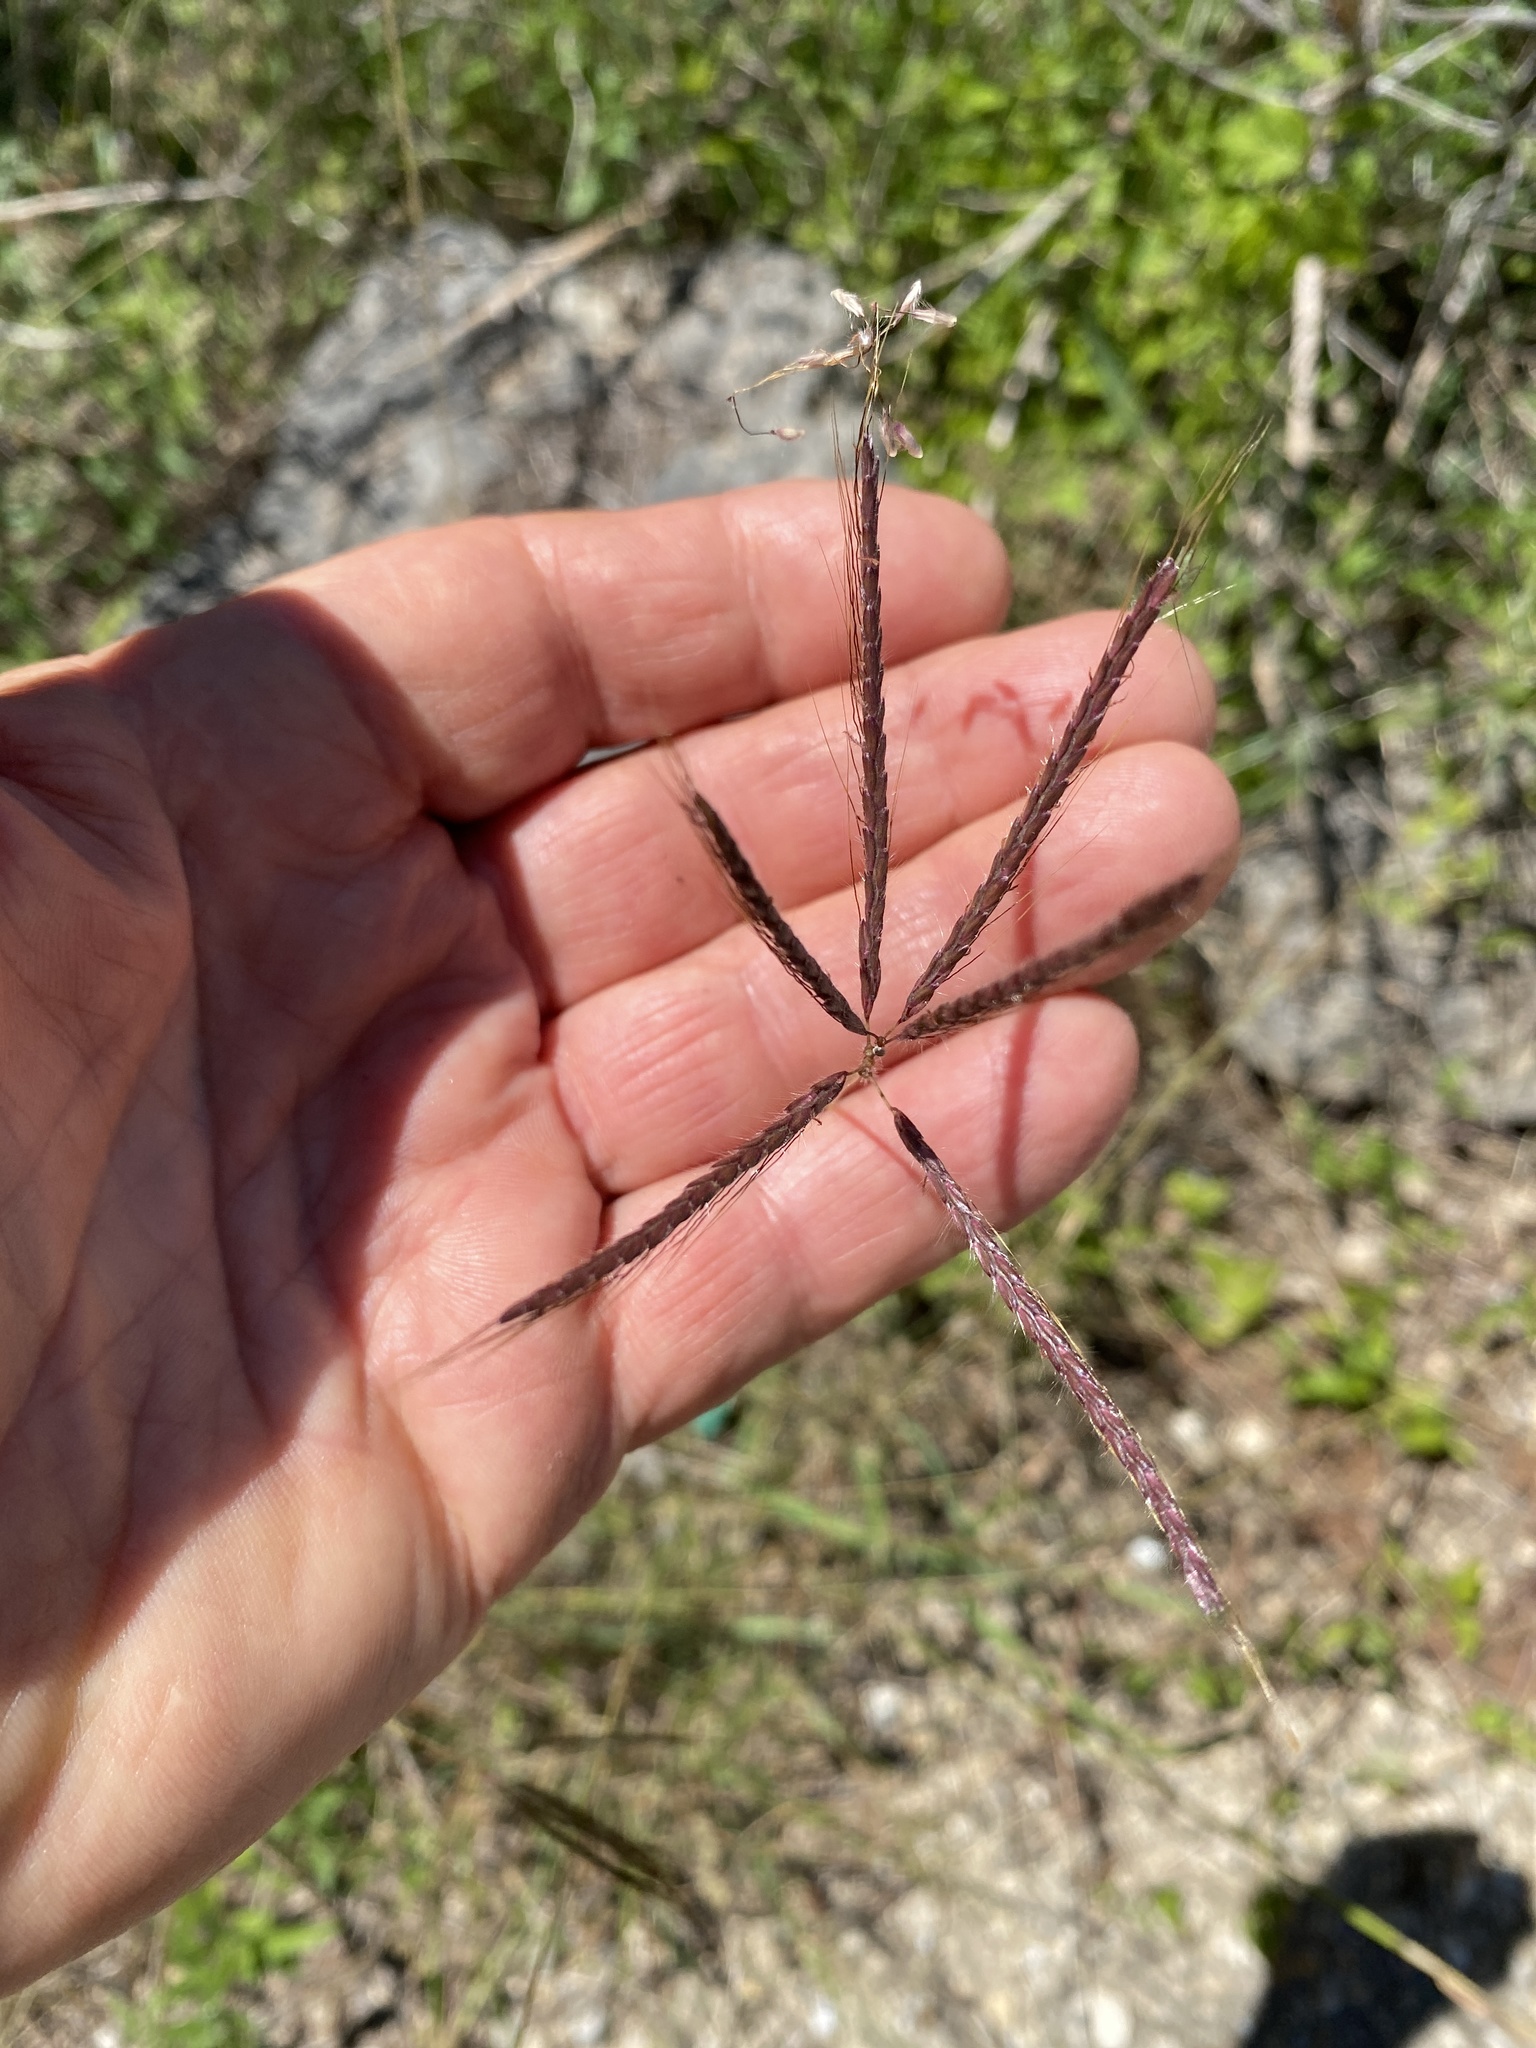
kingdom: Plantae
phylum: Tracheophyta
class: Liliopsida
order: Poales
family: Poaceae
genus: Dichanthium
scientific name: Dichanthium annulatum
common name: Kleberg's bluestem
